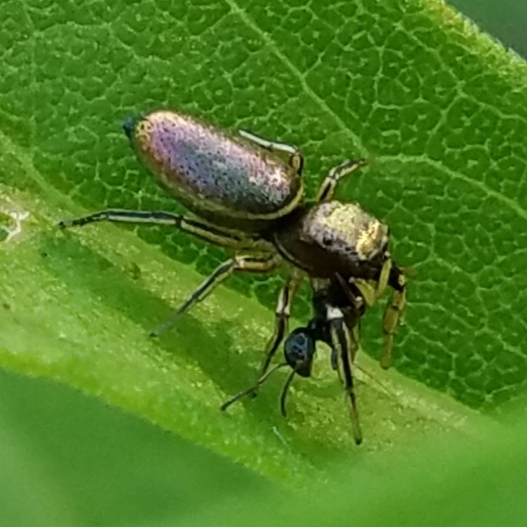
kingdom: Animalia
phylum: Arthropoda
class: Arachnida
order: Araneae
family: Salticidae
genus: Tutelina
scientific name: Tutelina elegans
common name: Thin-spined jumping spider
